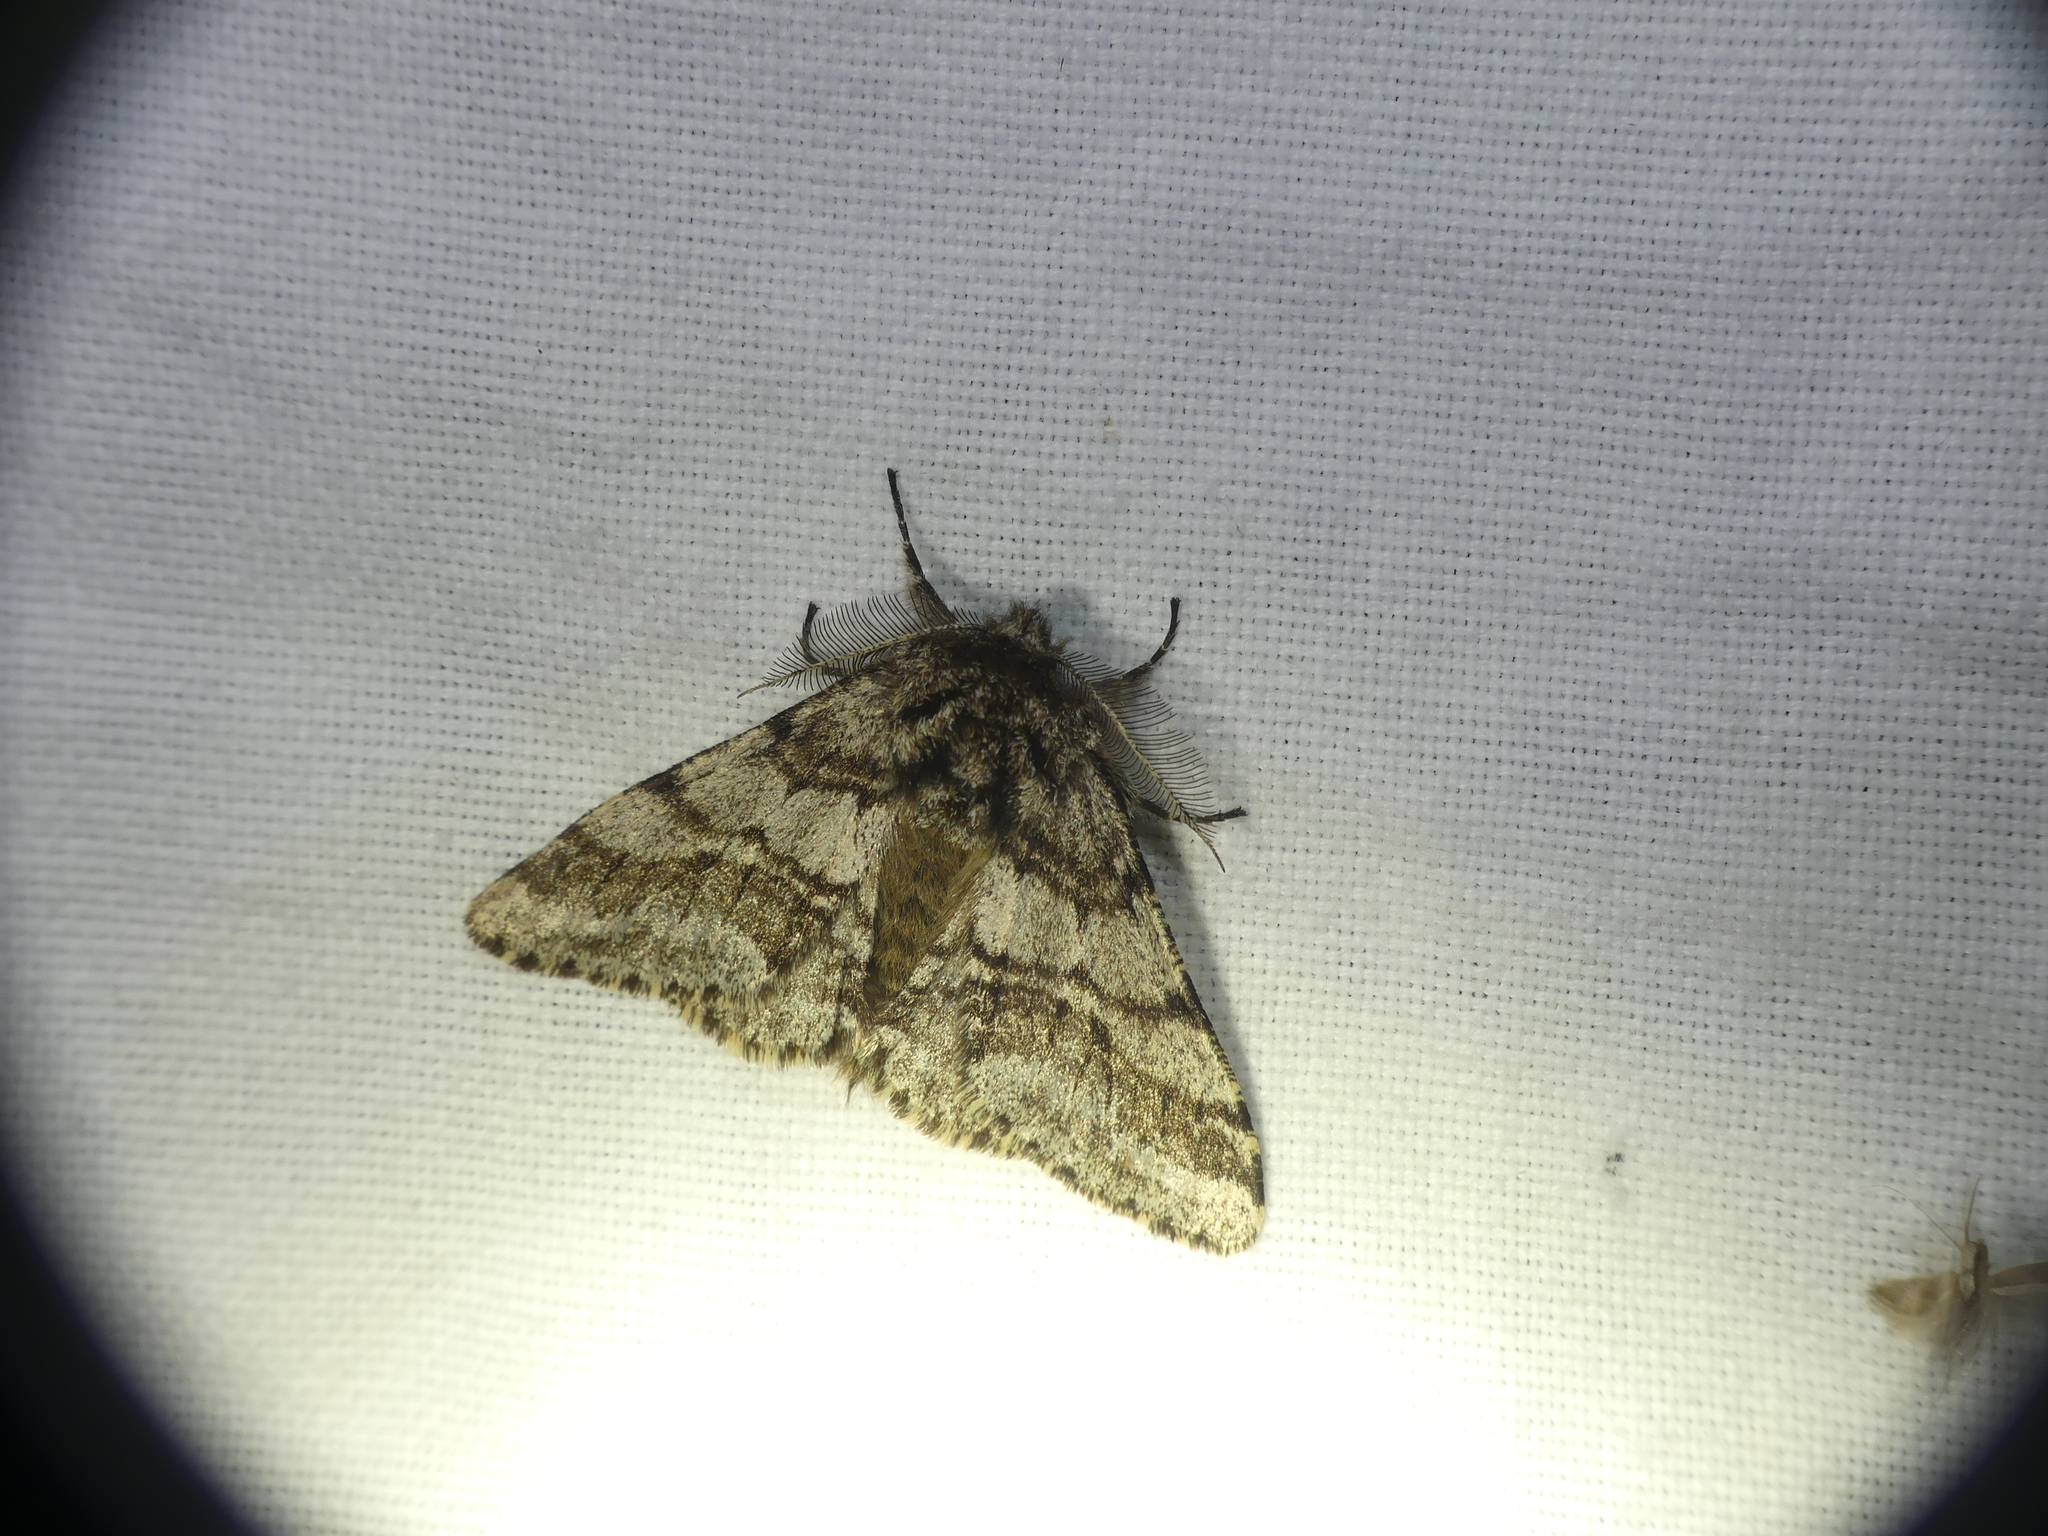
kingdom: Animalia
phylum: Arthropoda
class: Insecta
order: Lepidoptera
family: Geometridae
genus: Lycia
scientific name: Lycia hirtaria
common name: Brindled beauty
